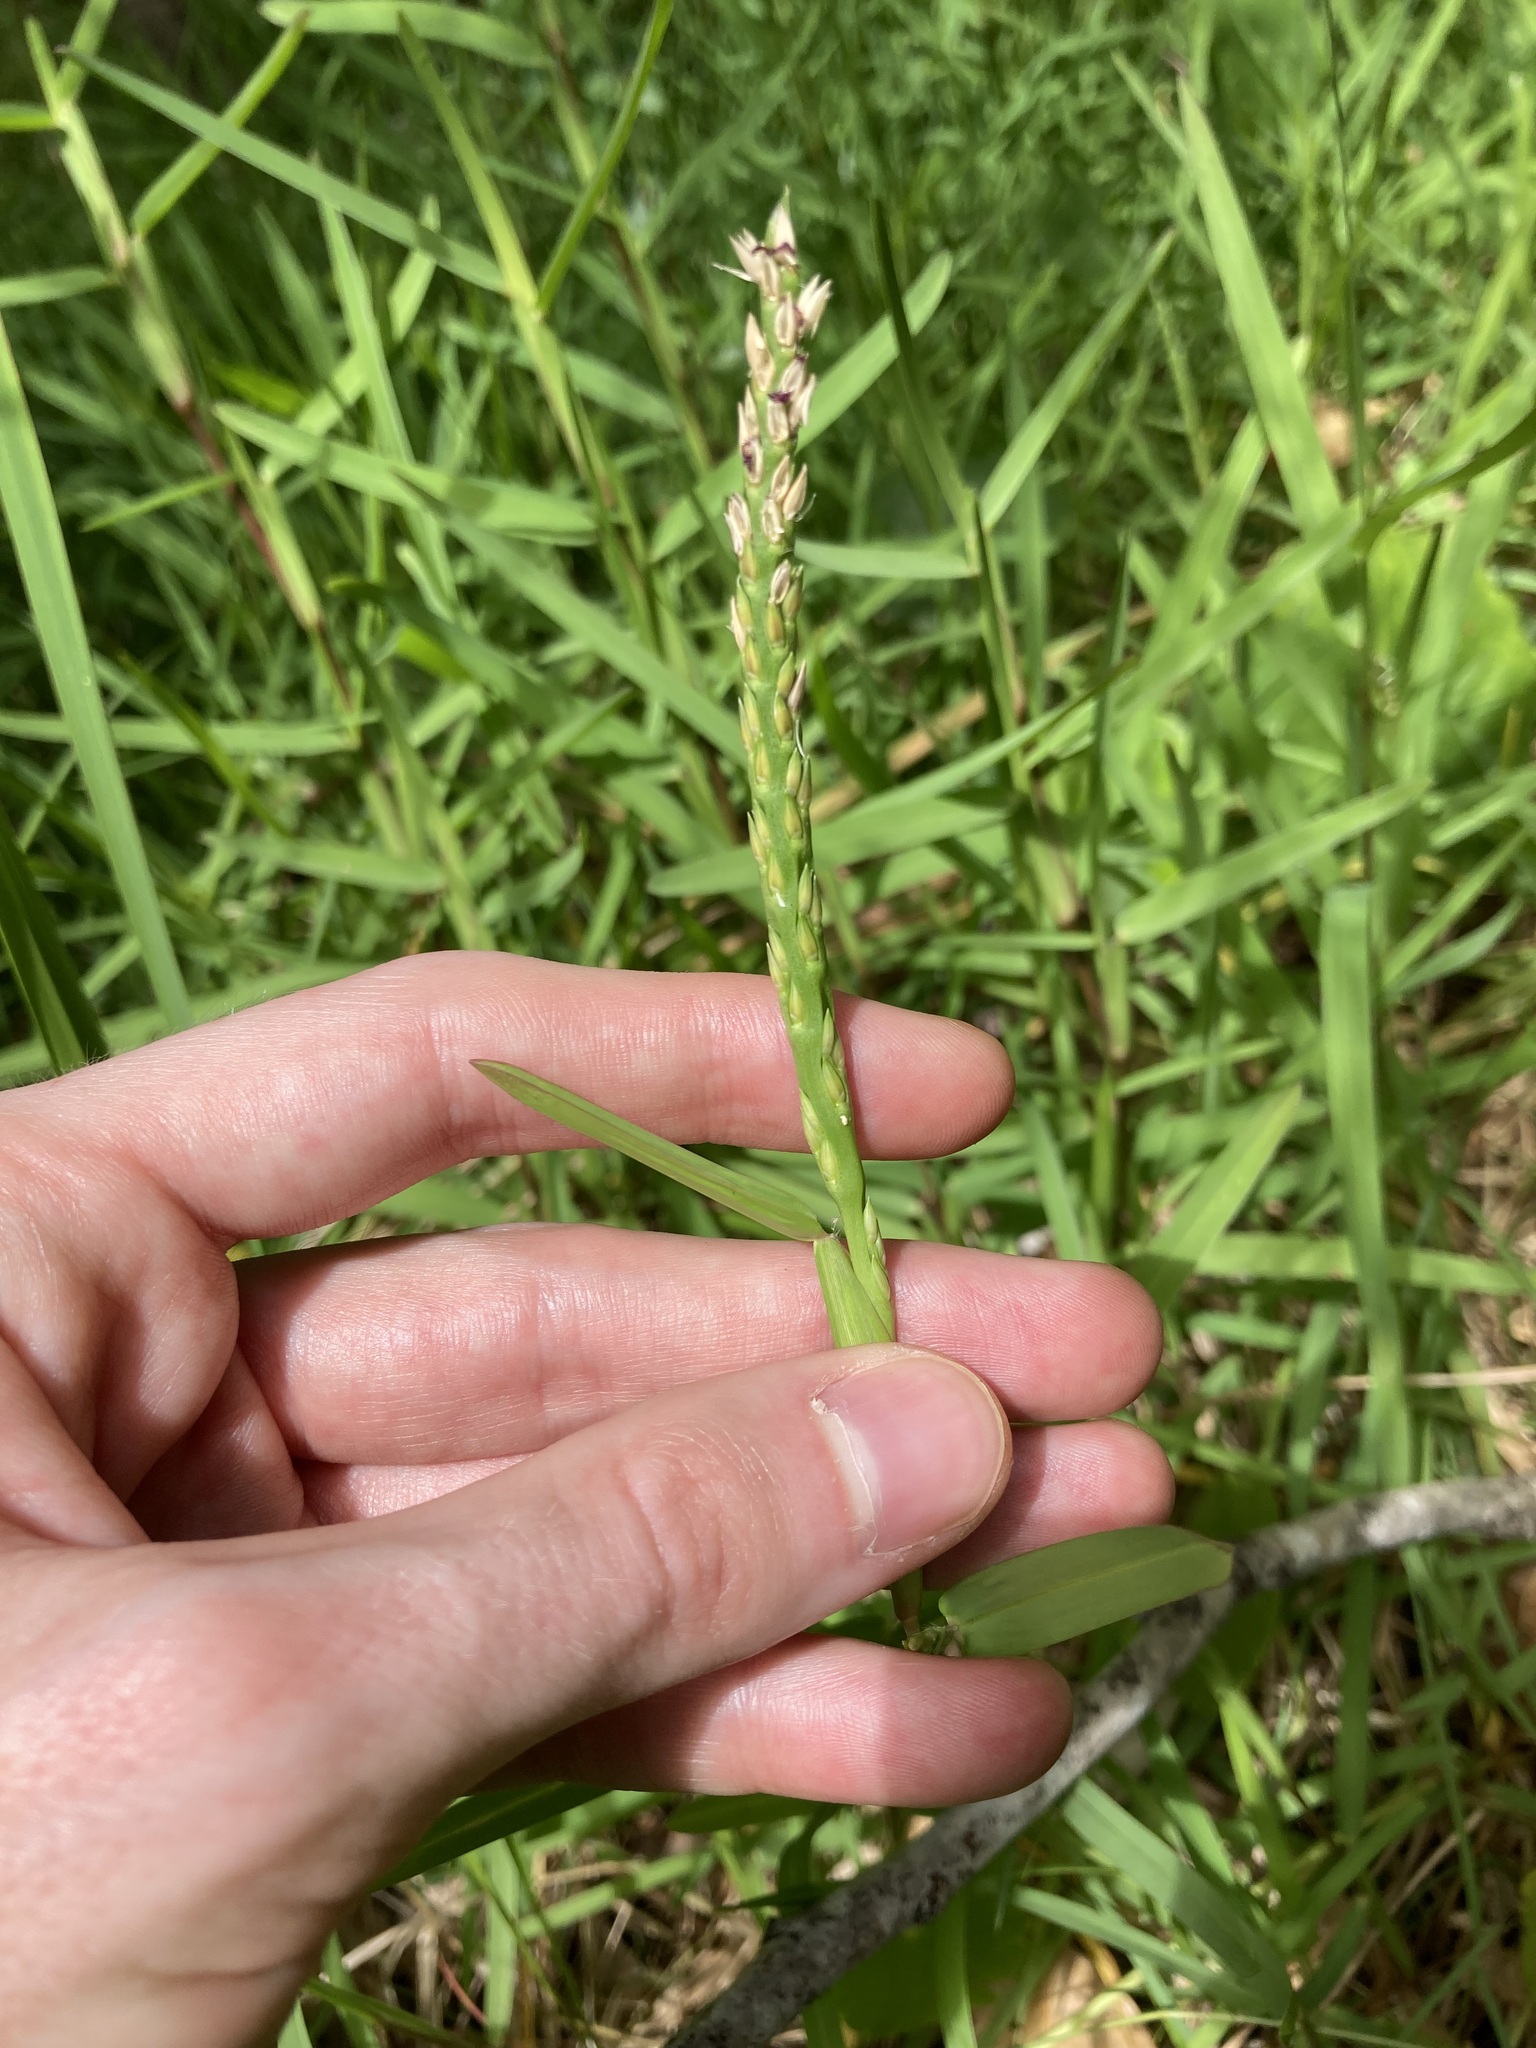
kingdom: Plantae
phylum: Tracheophyta
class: Liliopsida
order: Poales
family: Poaceae
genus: Stenotaphrum
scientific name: Stenotaphrum secundatum
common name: St. augustine grass
